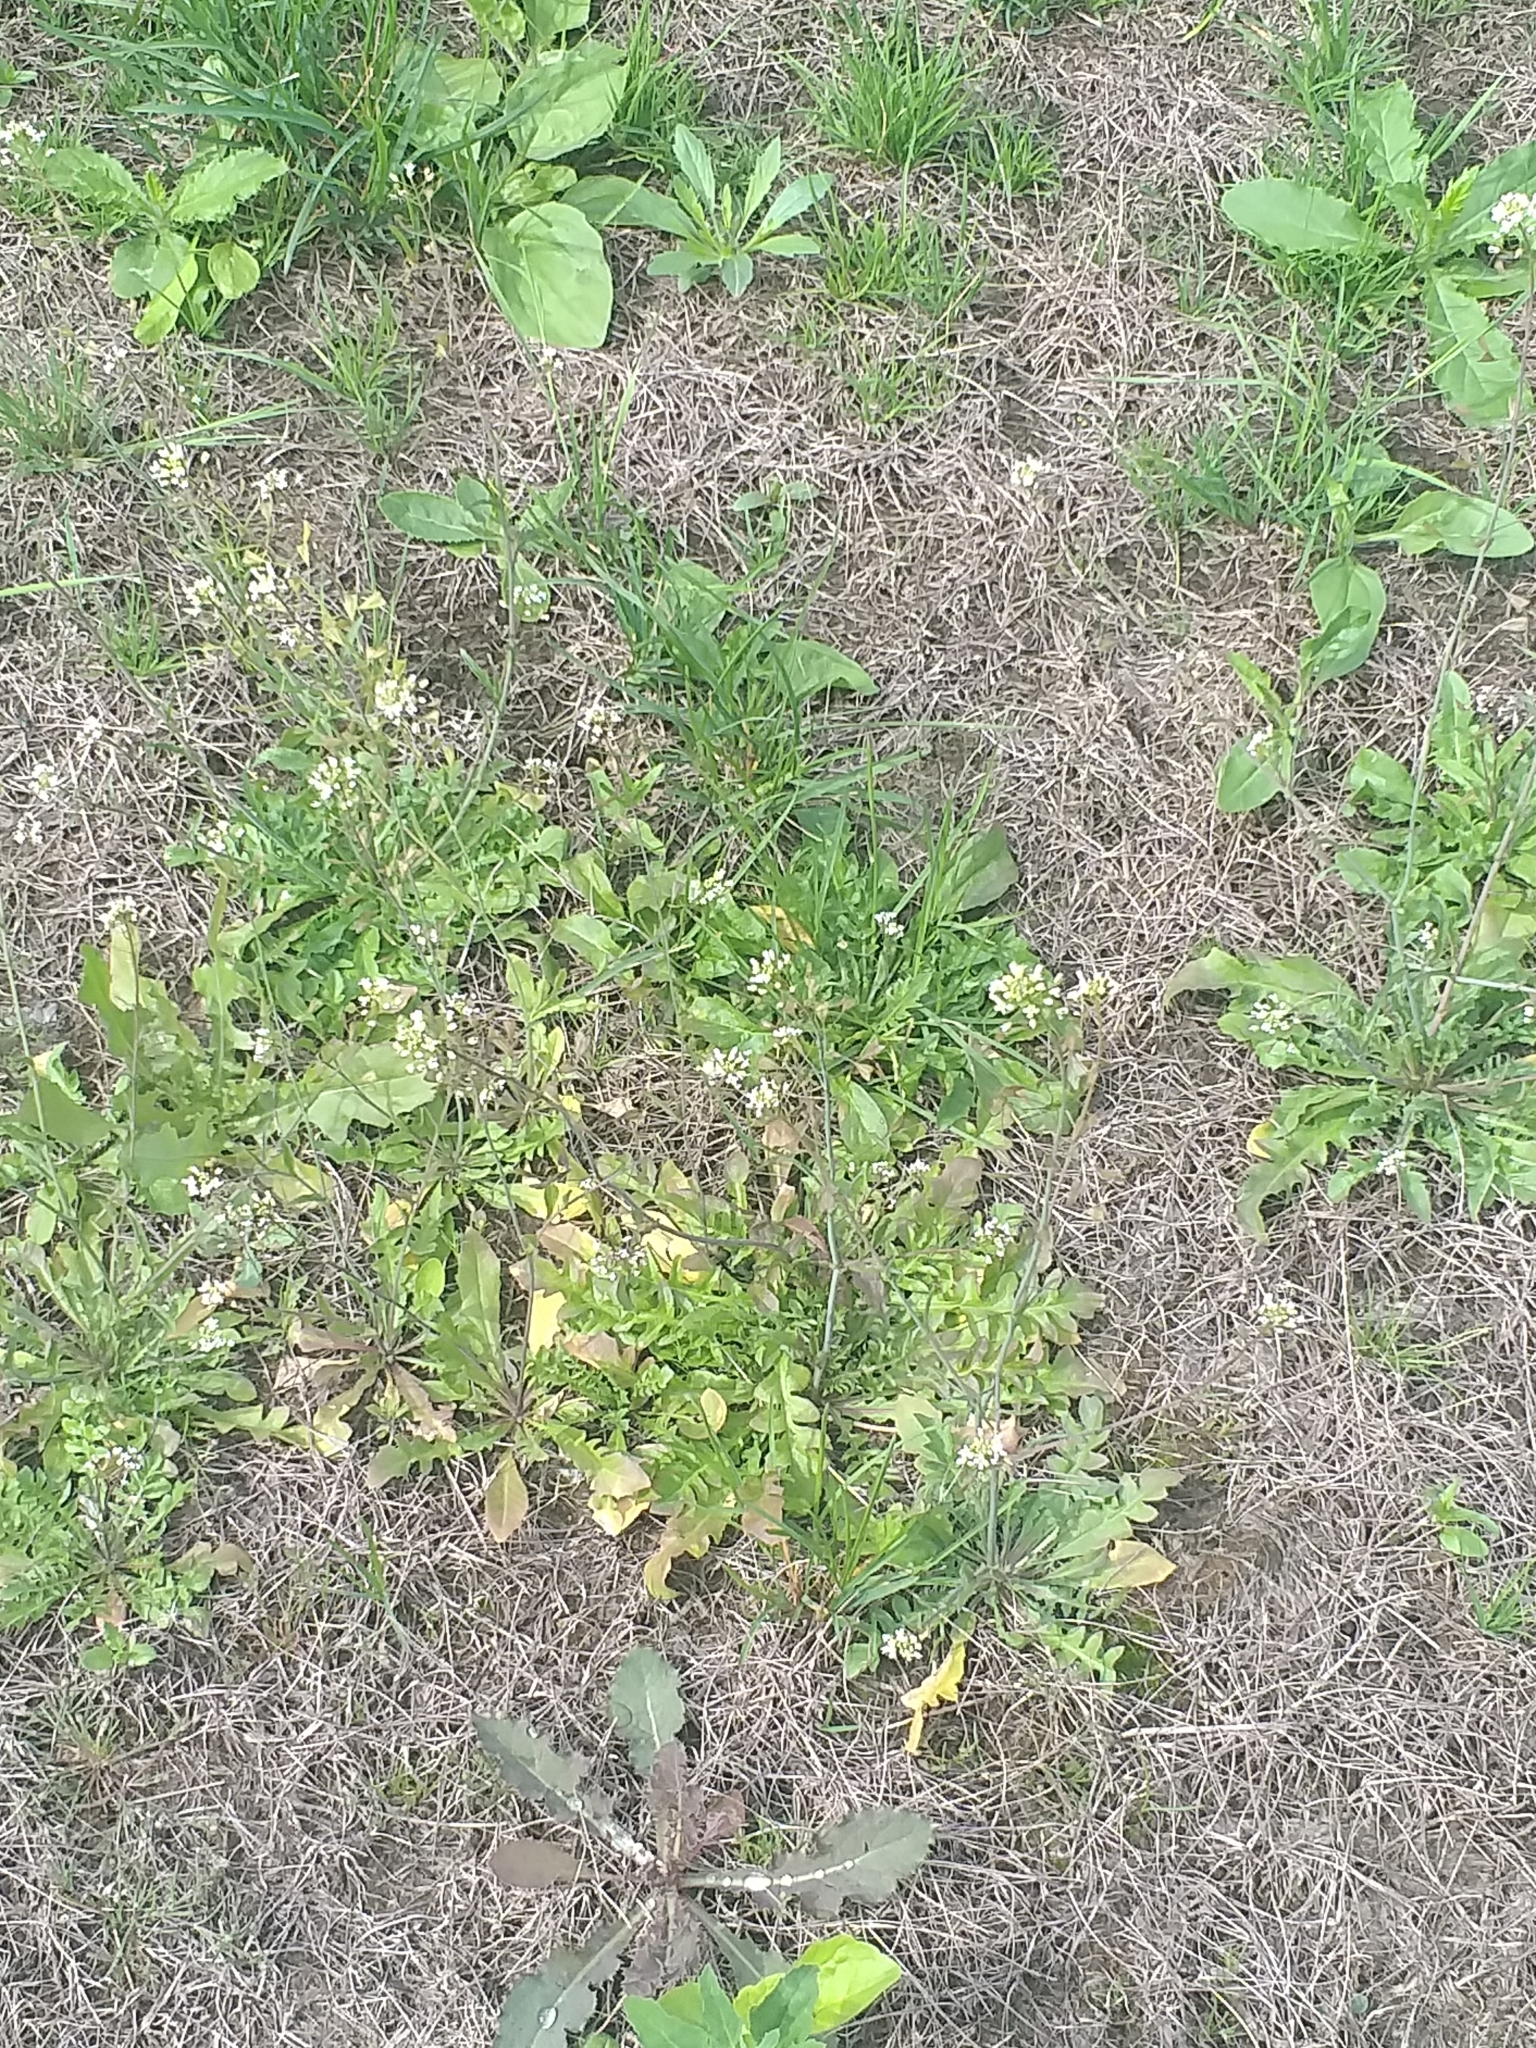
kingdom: Plantae
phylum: Tracheophyta
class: Magnoliopsida
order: Brassicales
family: Brassicaceae
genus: Capsella
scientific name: Capsella bursa-pastoris
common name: Shepherd's purse
